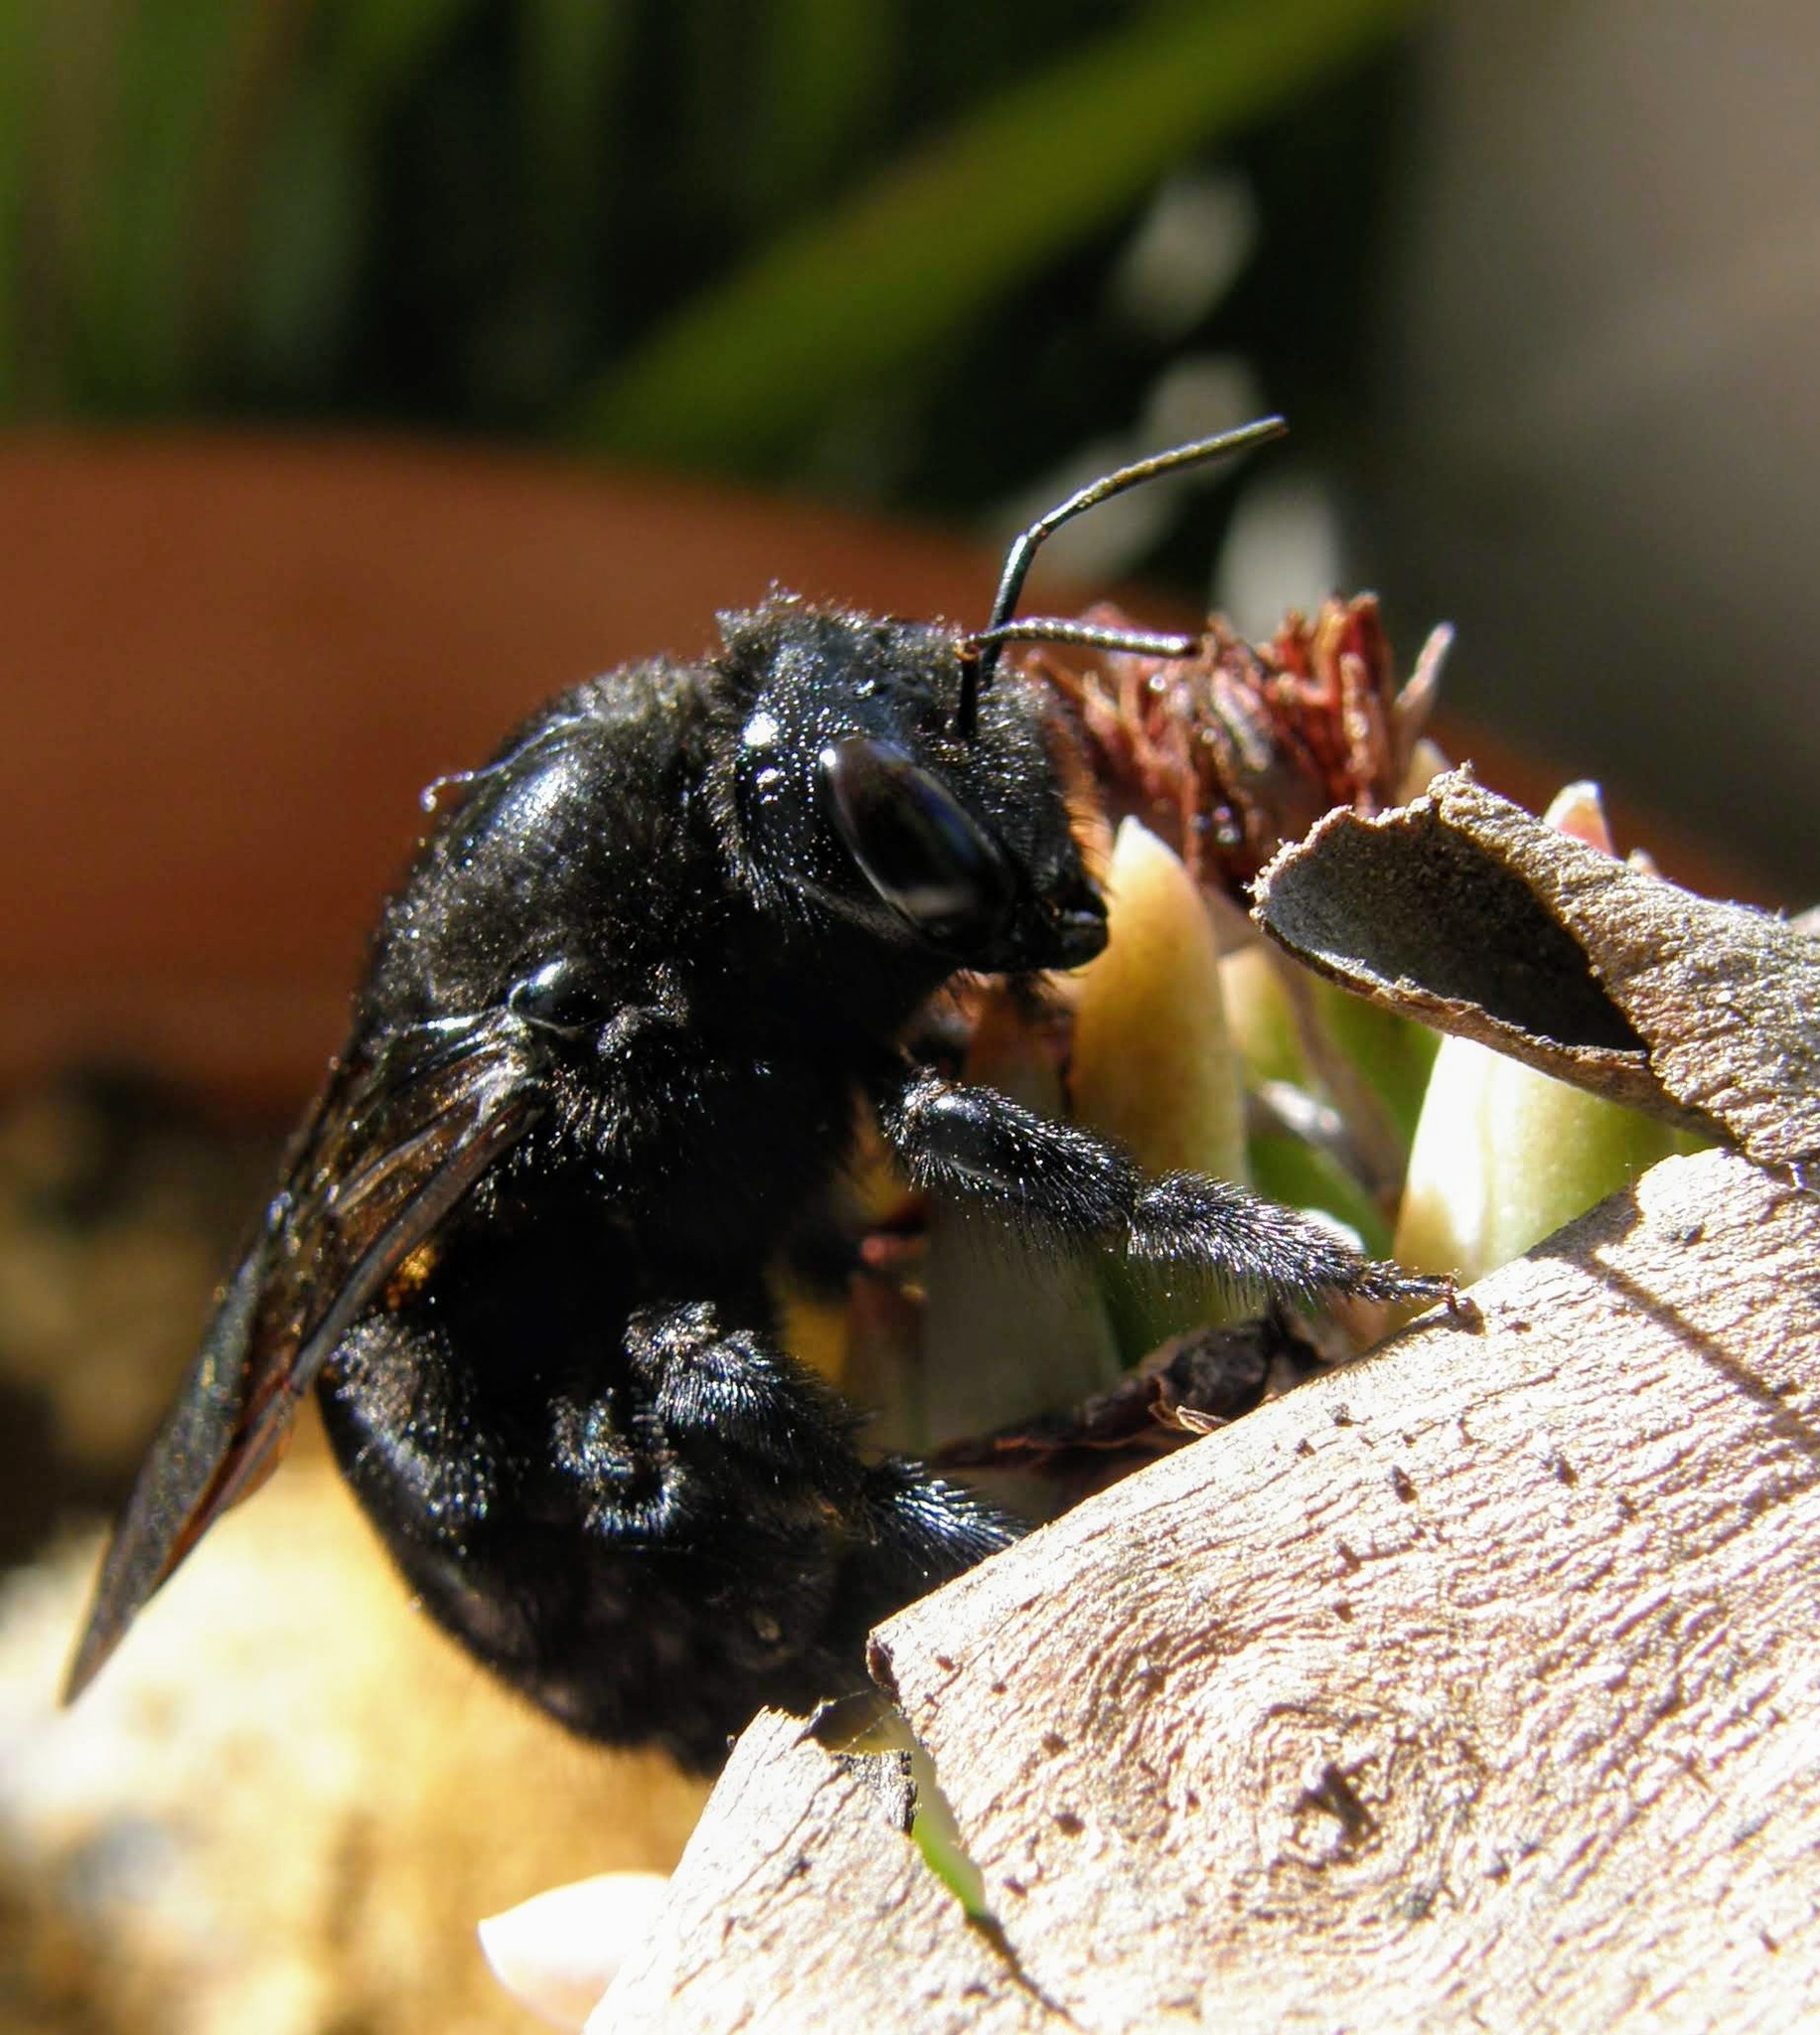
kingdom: Animalia
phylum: Arthropoda
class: Insecta
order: Hymenoptera
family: Apidae
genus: Xylocopa
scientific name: Xylocopa sonorina
